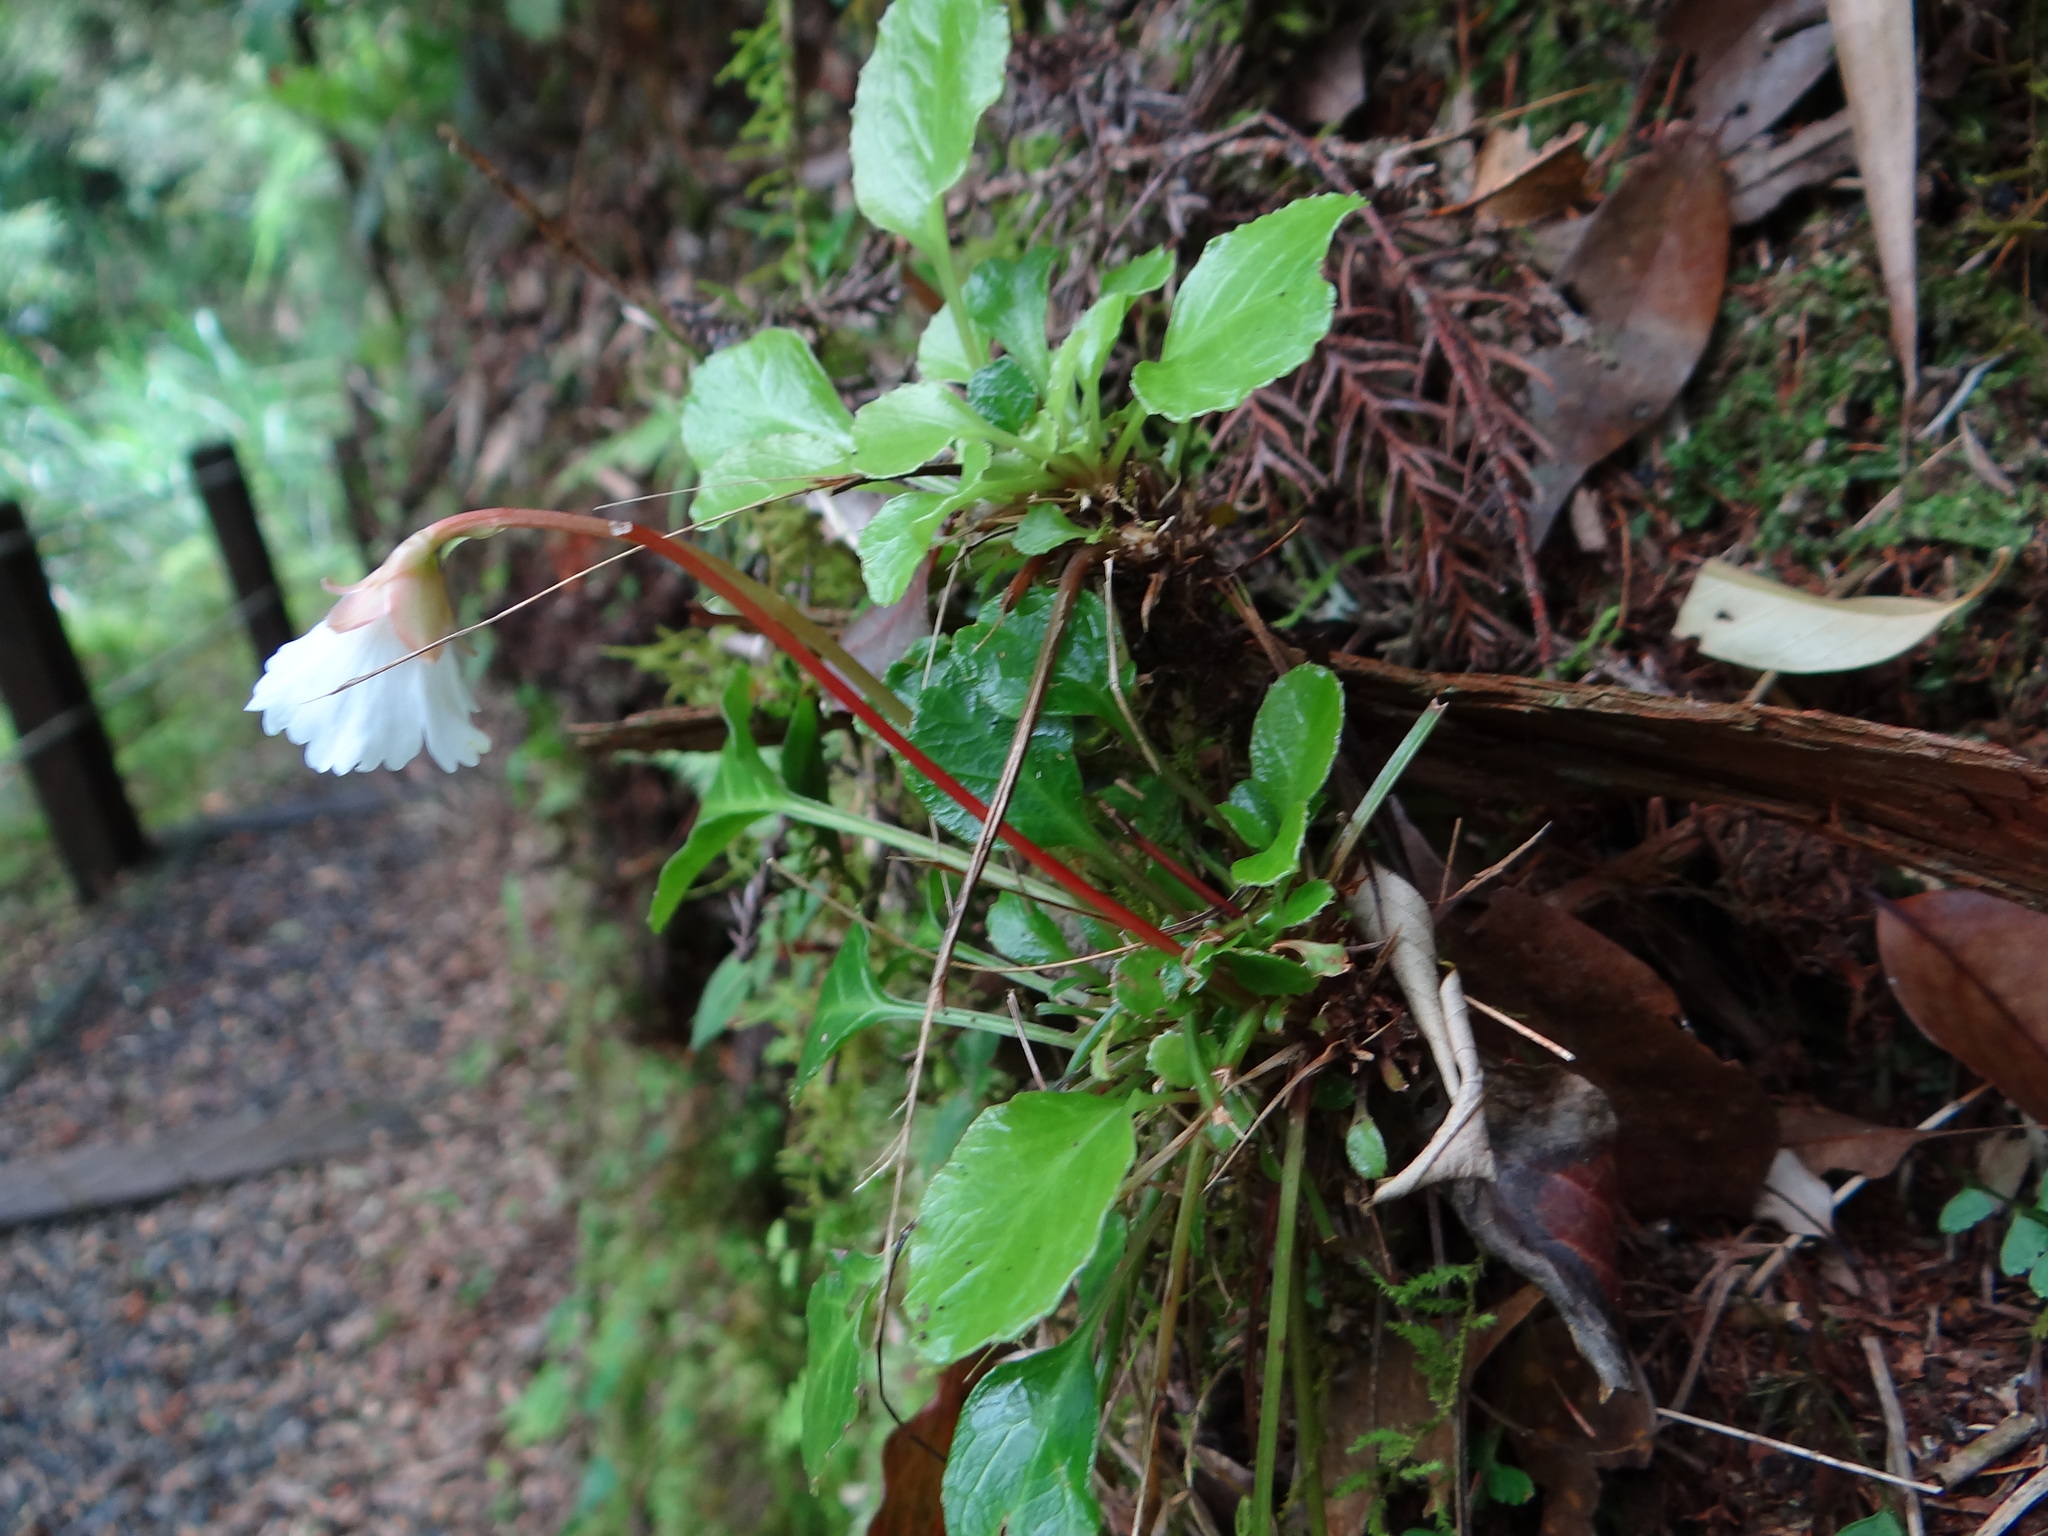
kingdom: Plantae
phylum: Tracheophyta
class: Magnoliopsida
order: Ericales
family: Diapensiaceae
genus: Shortia
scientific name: Shortia rotundifolia
